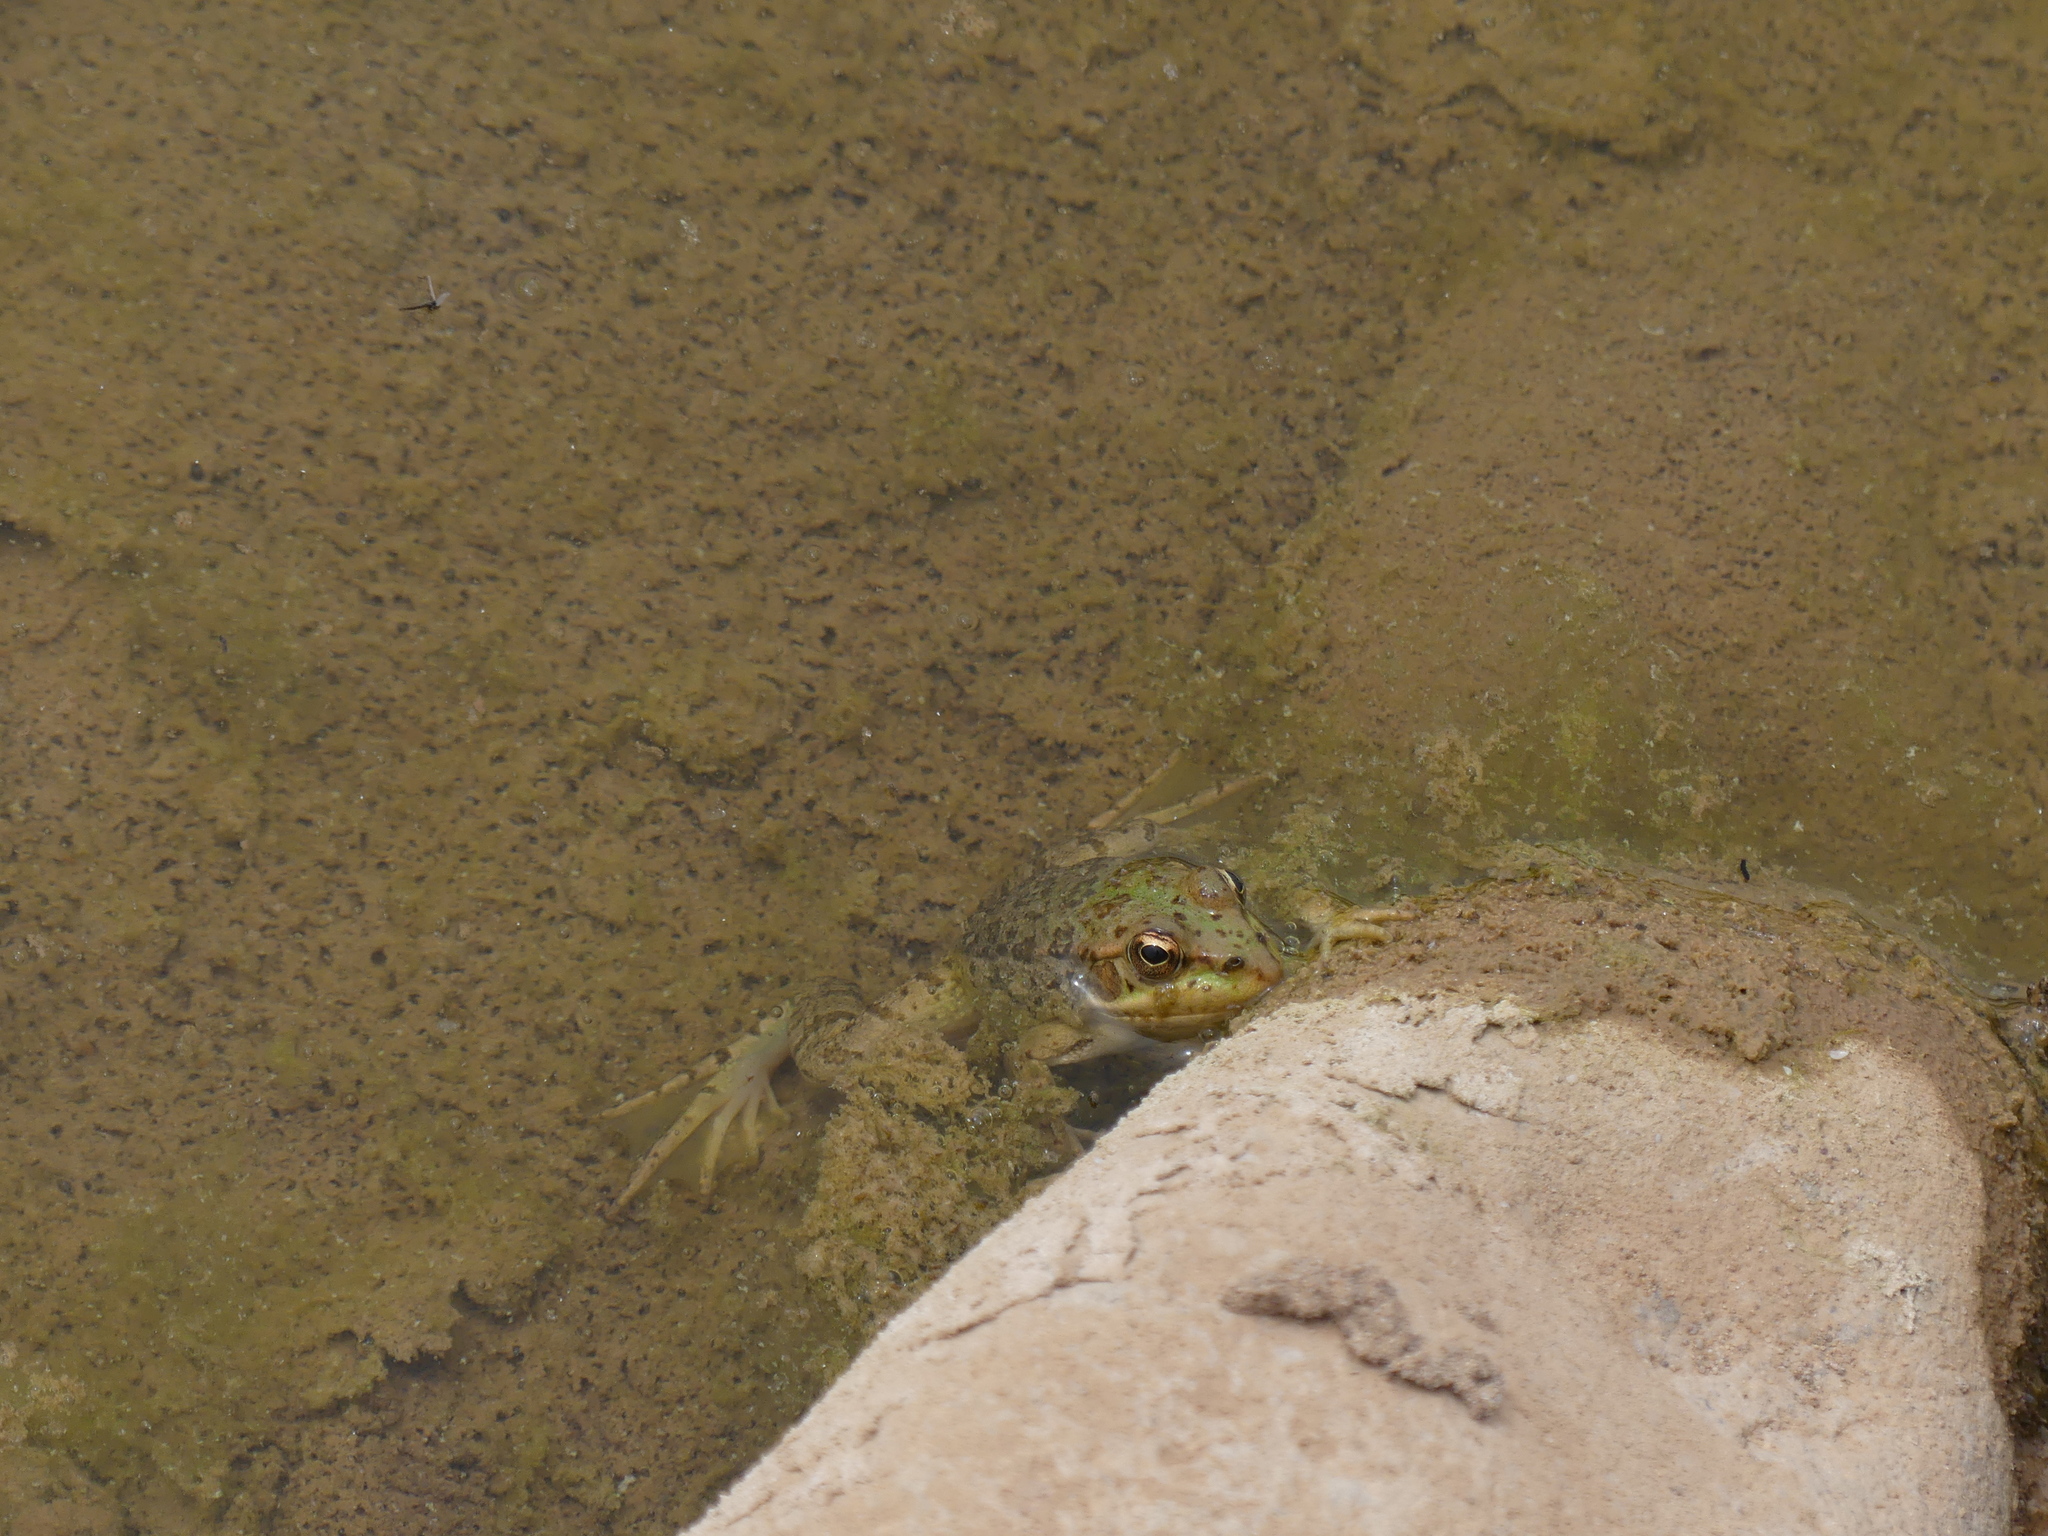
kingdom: Animalia
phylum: Chordata
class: Amphibia
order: Anura
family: Ranidae
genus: Pelophylax
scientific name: Pelophylax saharicus
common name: Sahara frog
